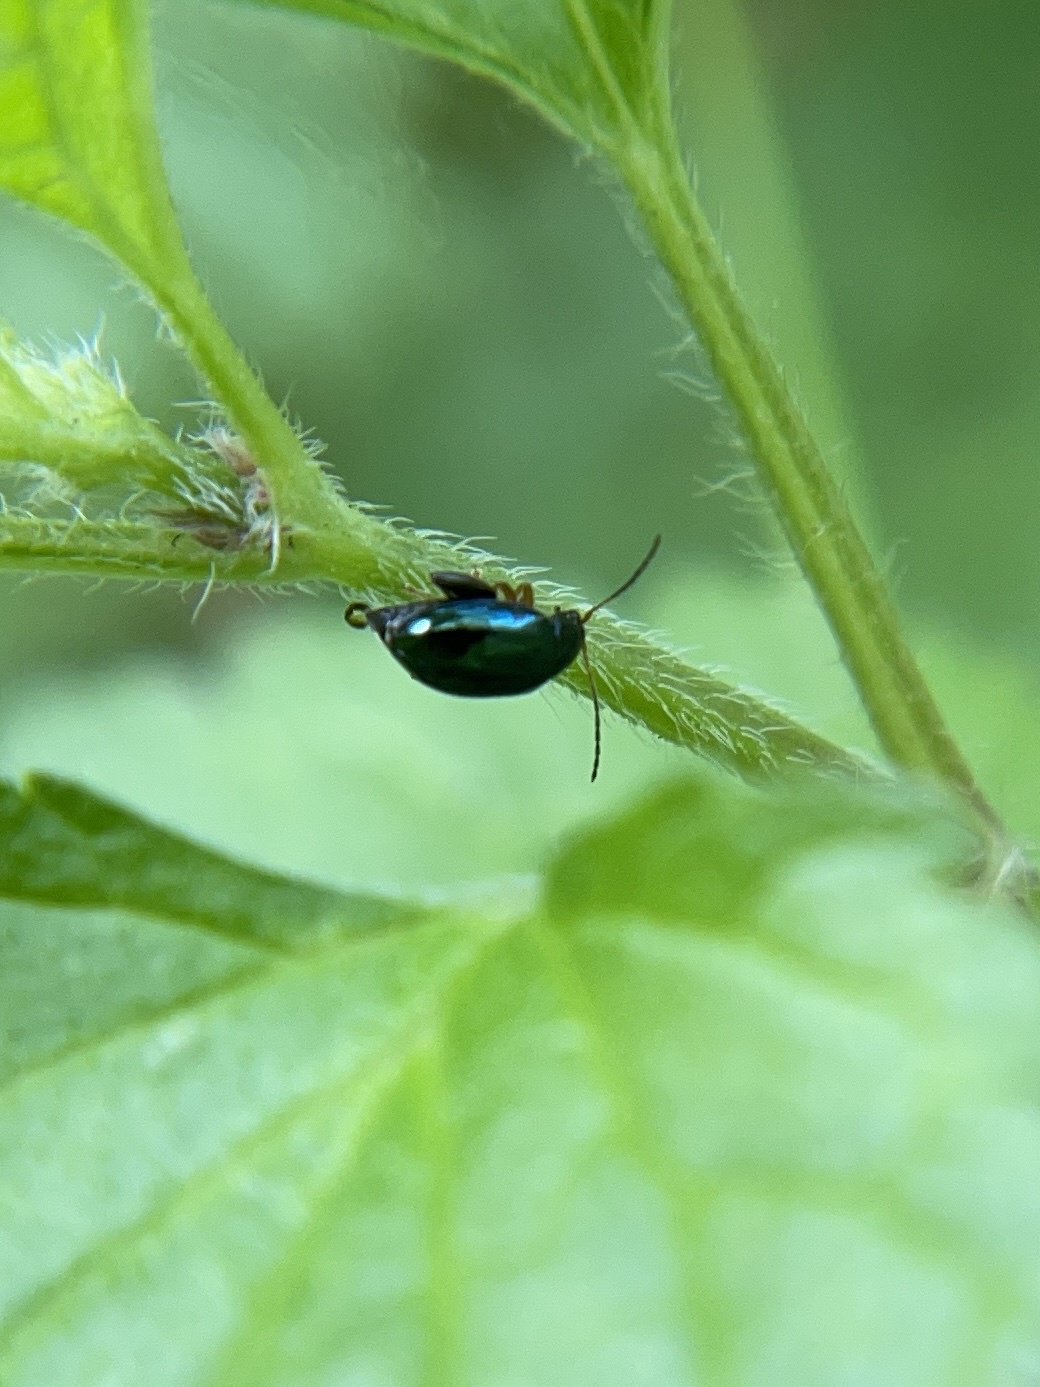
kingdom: Animalia
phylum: Arthropoda
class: Insecta
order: Coleoptera
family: Chrysomelidae
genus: Longitarsus
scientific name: Longitarsus linnaei
